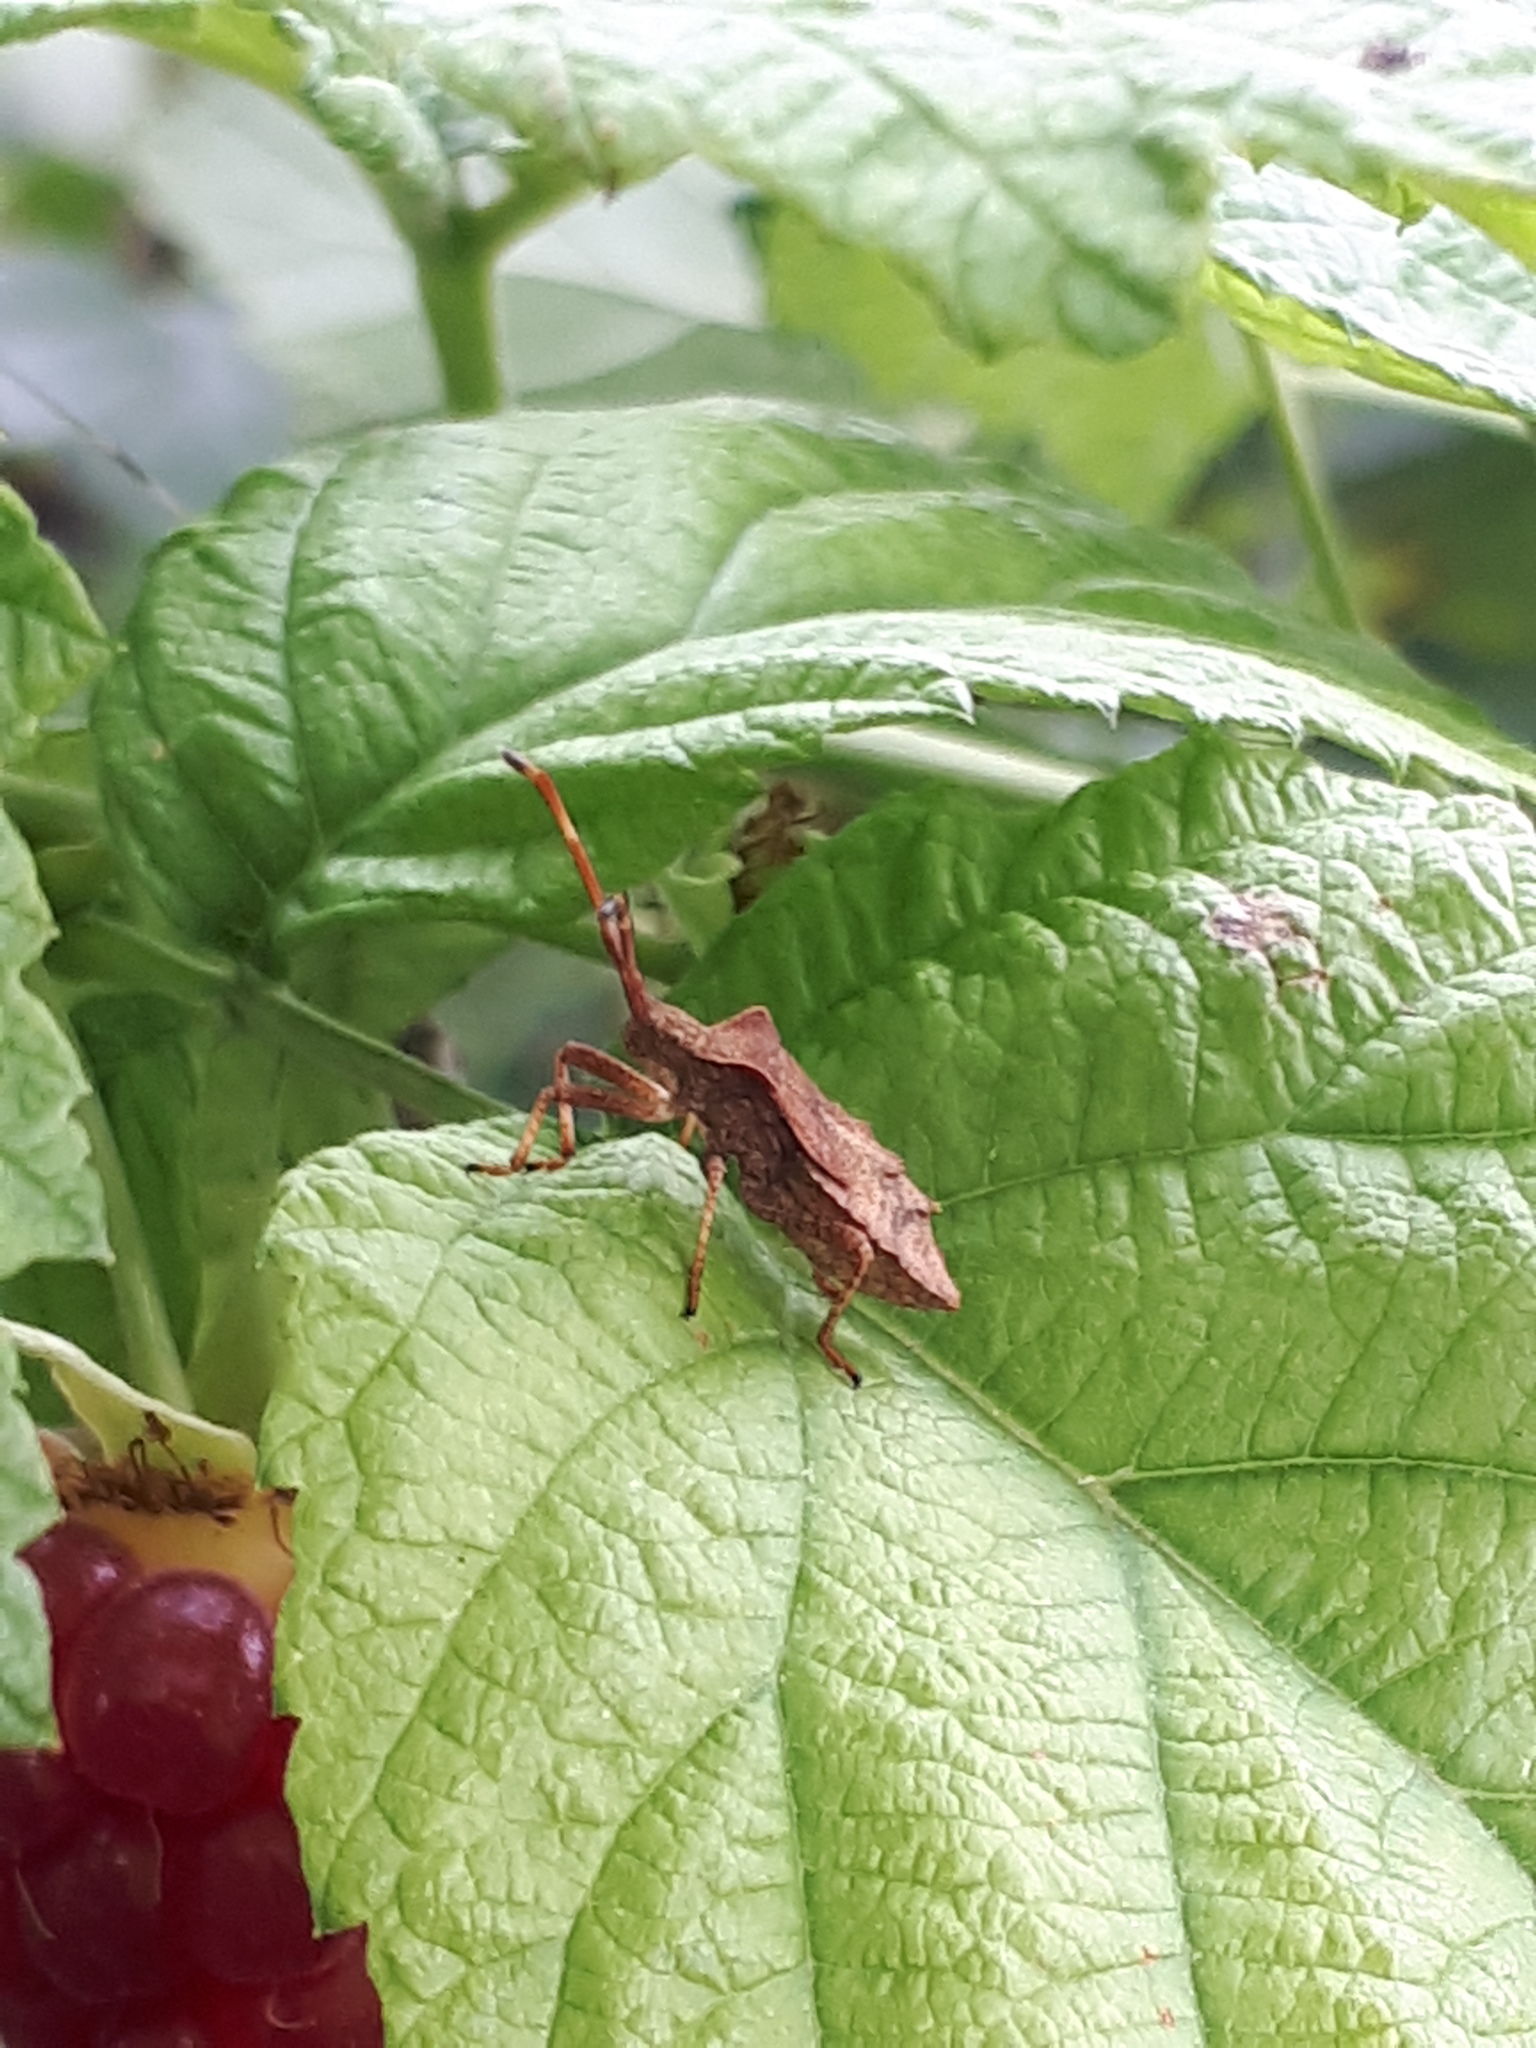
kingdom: Animalia
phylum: Arthropoda
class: Insecta
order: Hemiptera
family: Coreidae
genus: Coreus
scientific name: Coreus marginatus
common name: Dock bug
